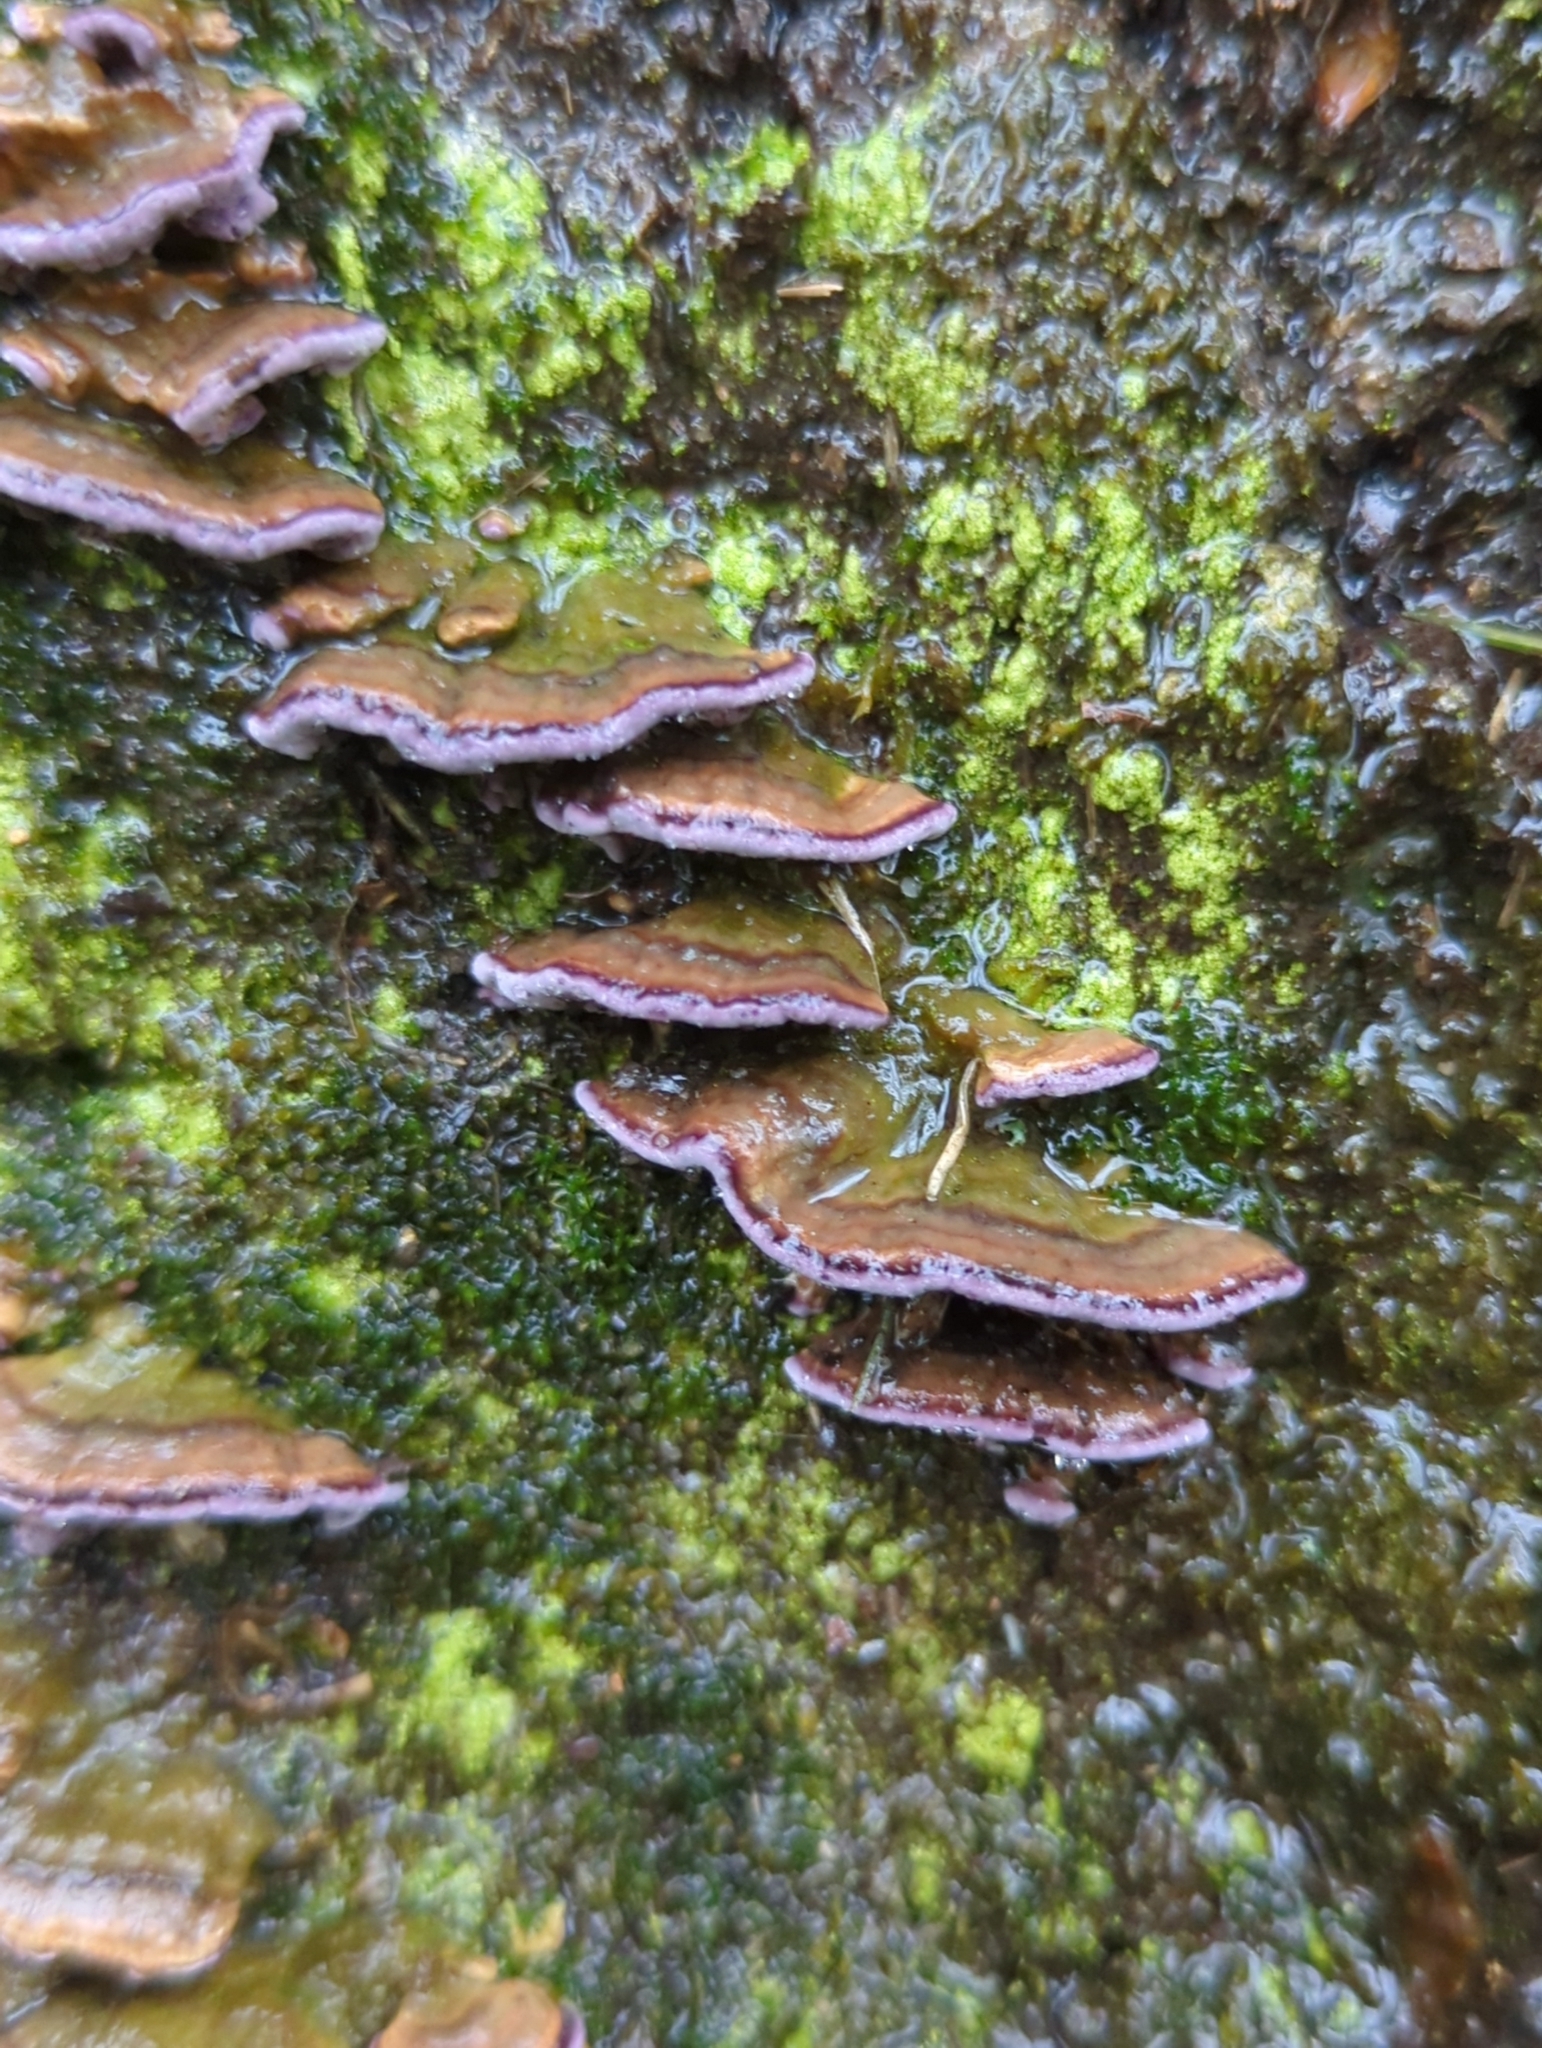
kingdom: Fungi
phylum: Basidiomycota
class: Agaricomycetes
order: Hymenochaetales
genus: Trichaptum
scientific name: Trichaptum biforme
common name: Violet-toothed polypore
